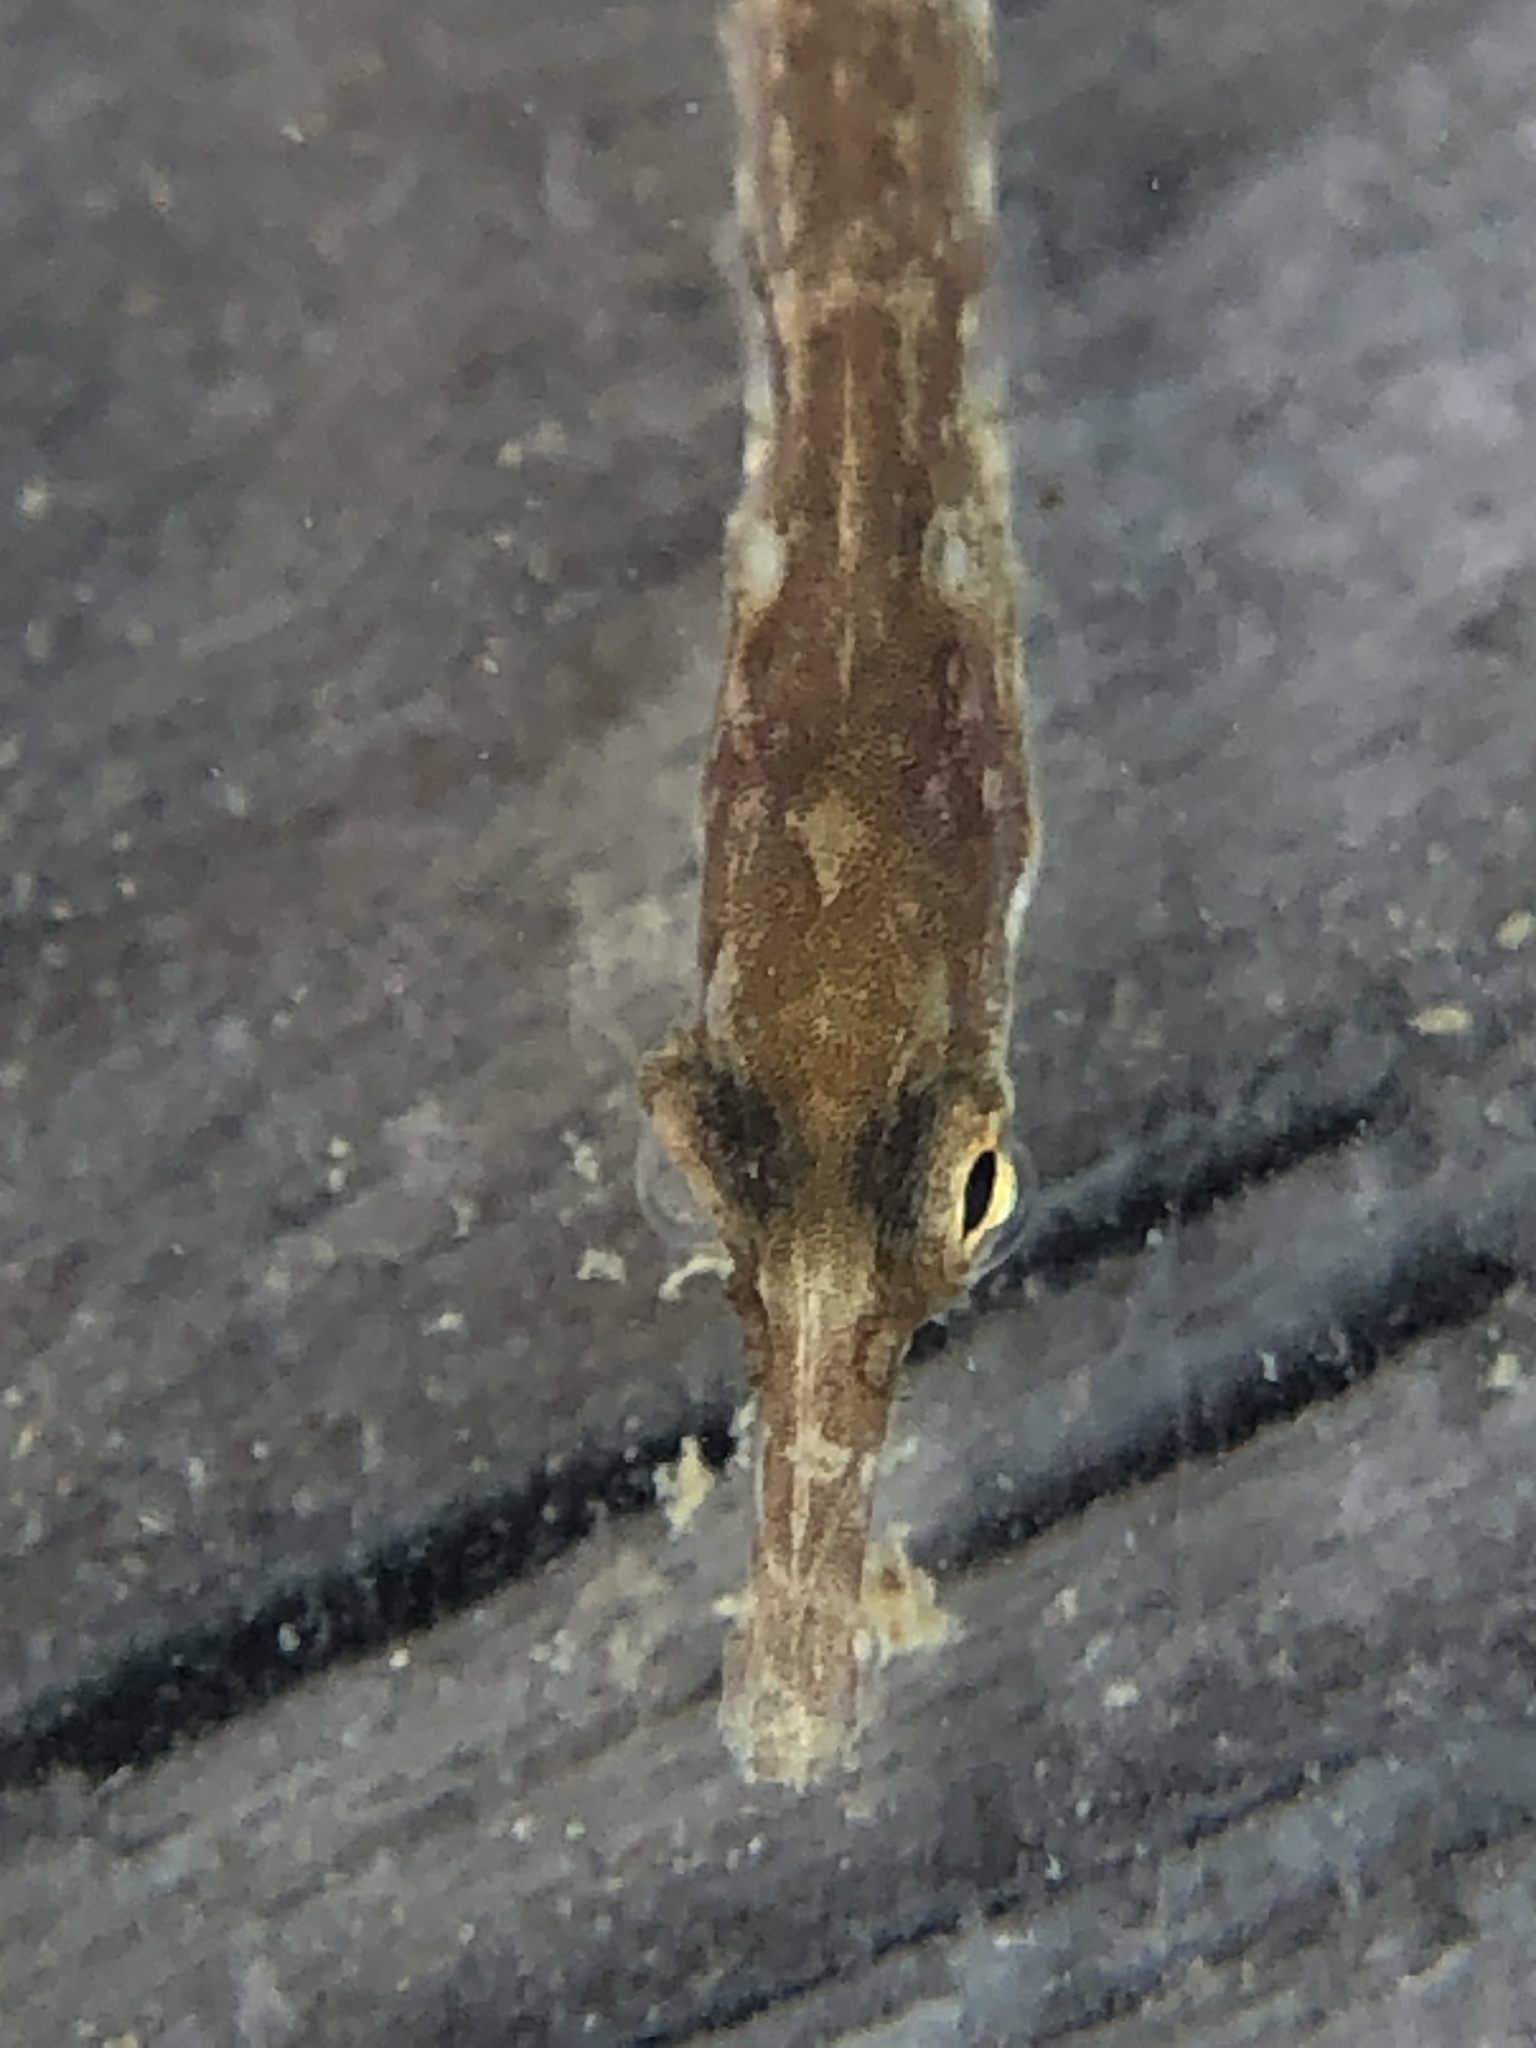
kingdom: Animalia
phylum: Chordata
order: Syngnathiformes
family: Syngnathidae
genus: Syngnathus
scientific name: Syngnathus californiensis
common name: Great pipefish
